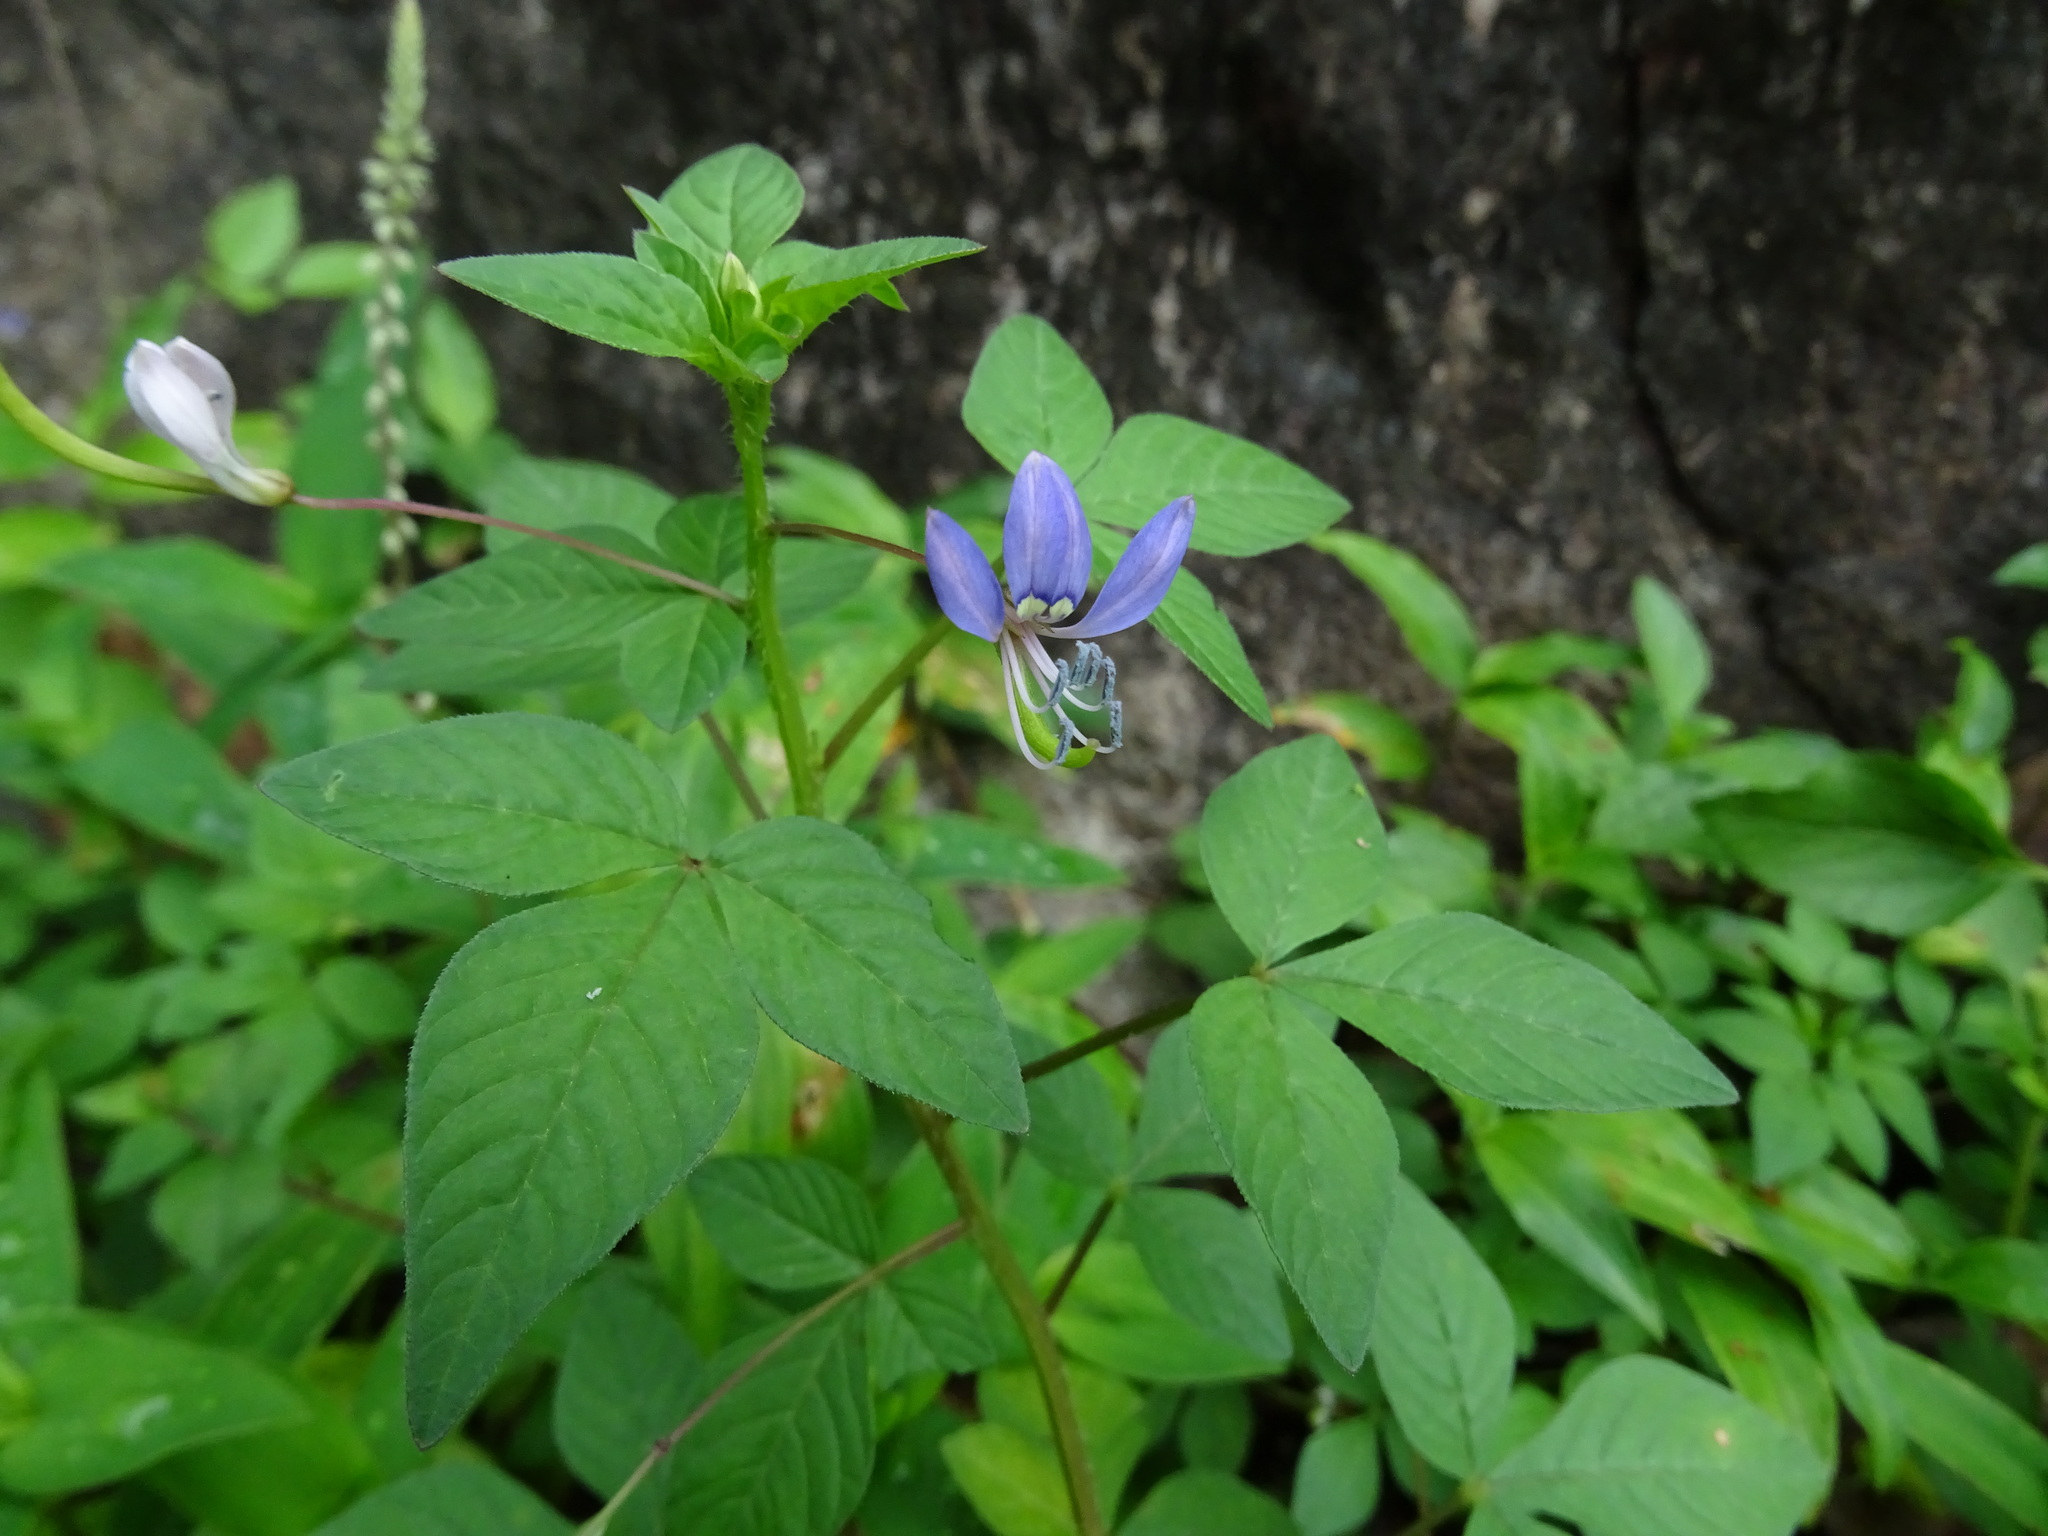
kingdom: Plantae
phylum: Tracheophyta
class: Magnoliopsida
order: Brassicales
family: Cleomaceae
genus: Sieruela
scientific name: Sieruela rutidosperma
